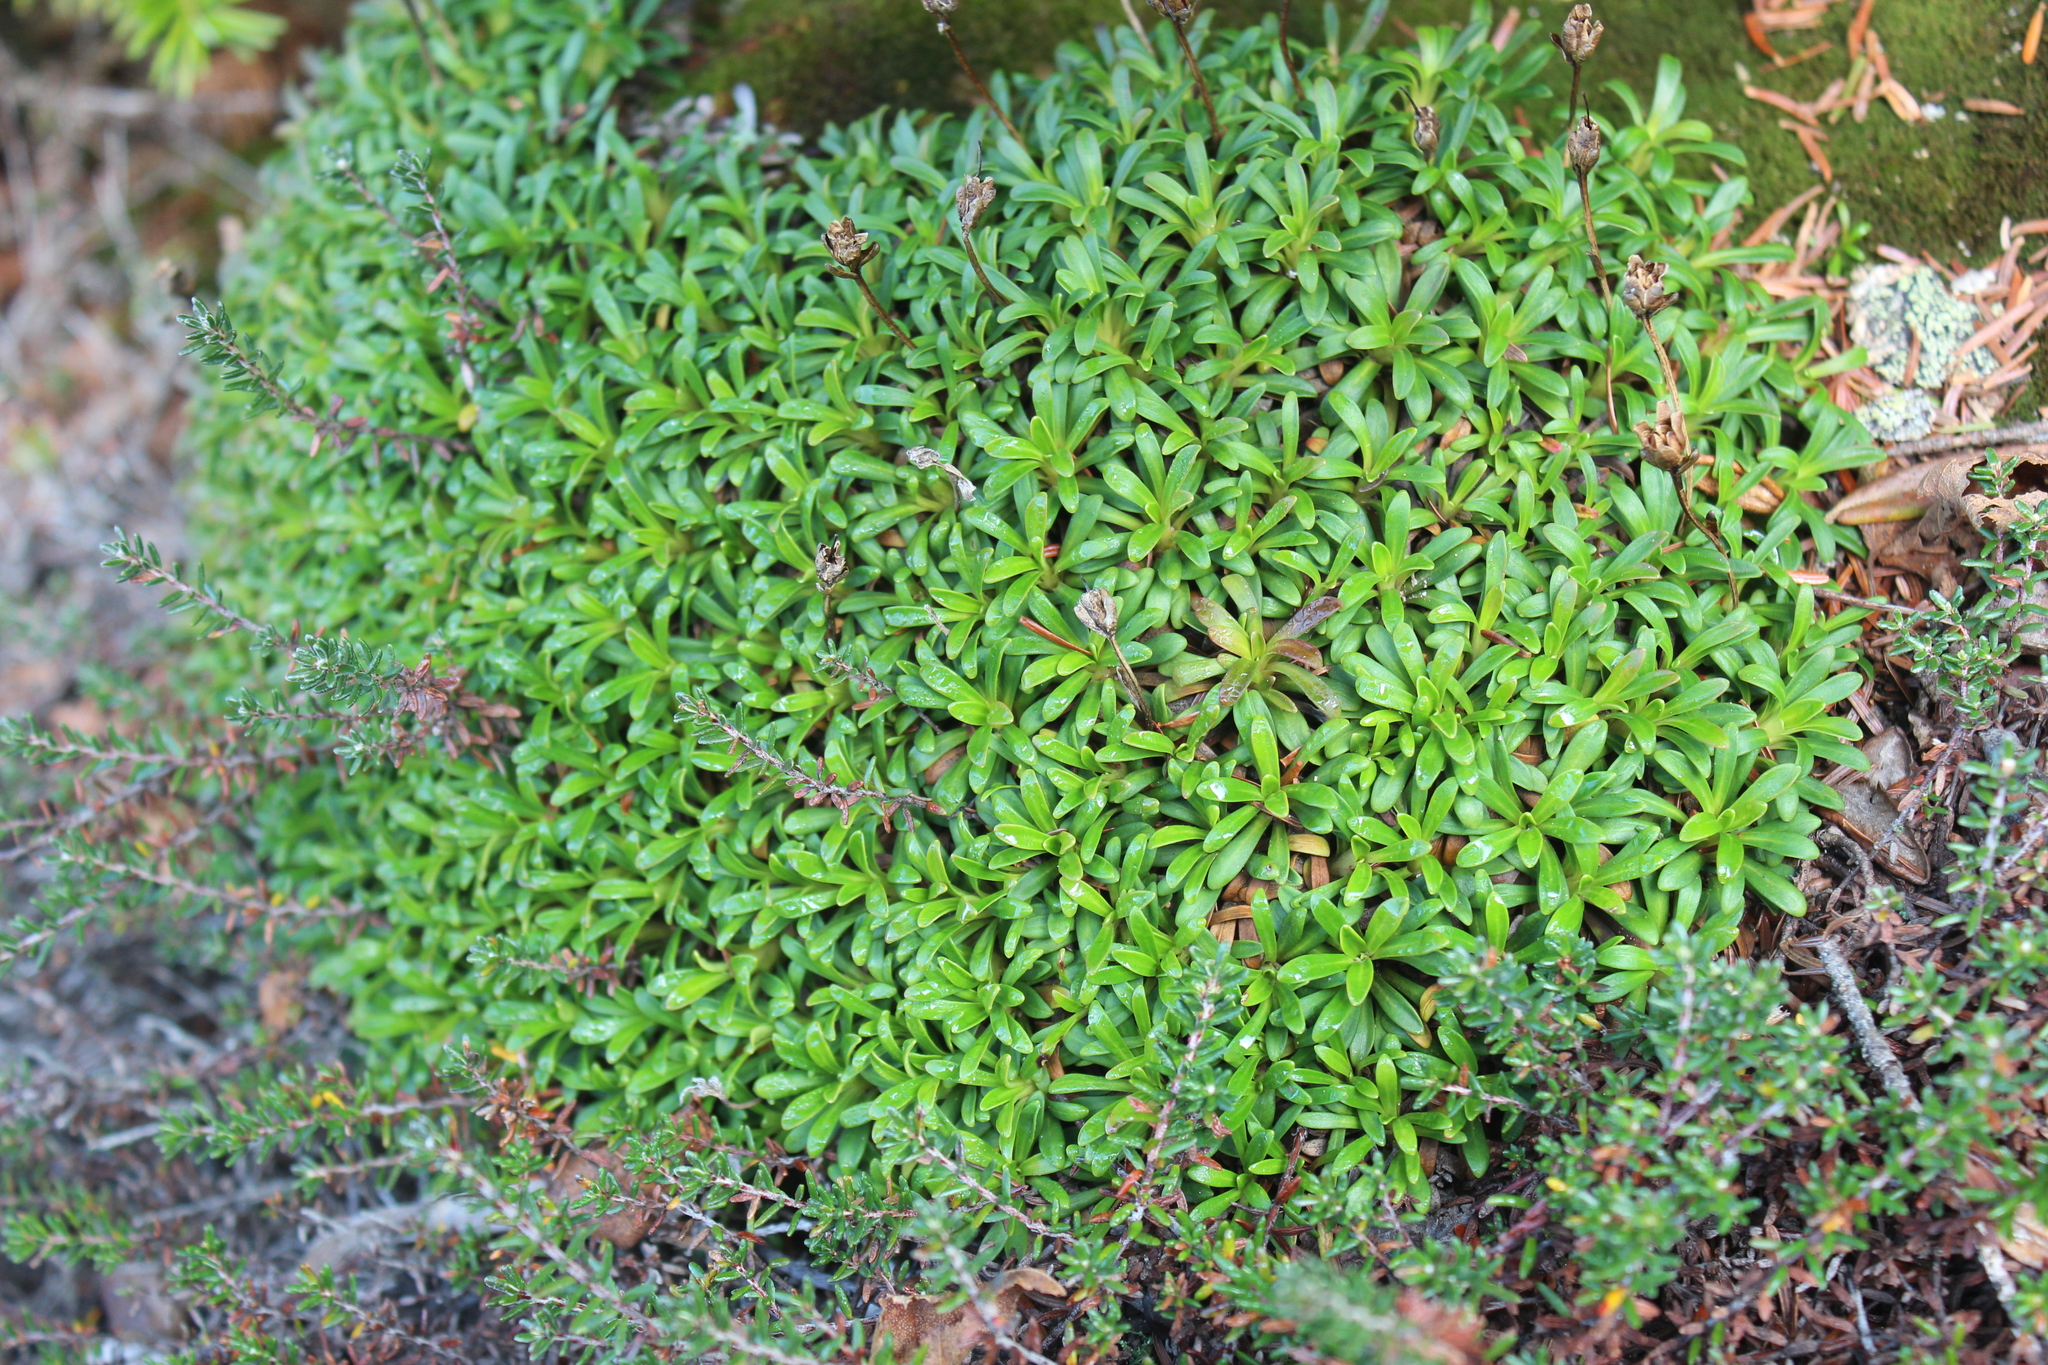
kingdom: Plantae
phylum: Tracheophyta
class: Magnoliopsida
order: Ericales
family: Diapensiaceae
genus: Diapensia
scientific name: Diapensia lapponica
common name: Diapensia
